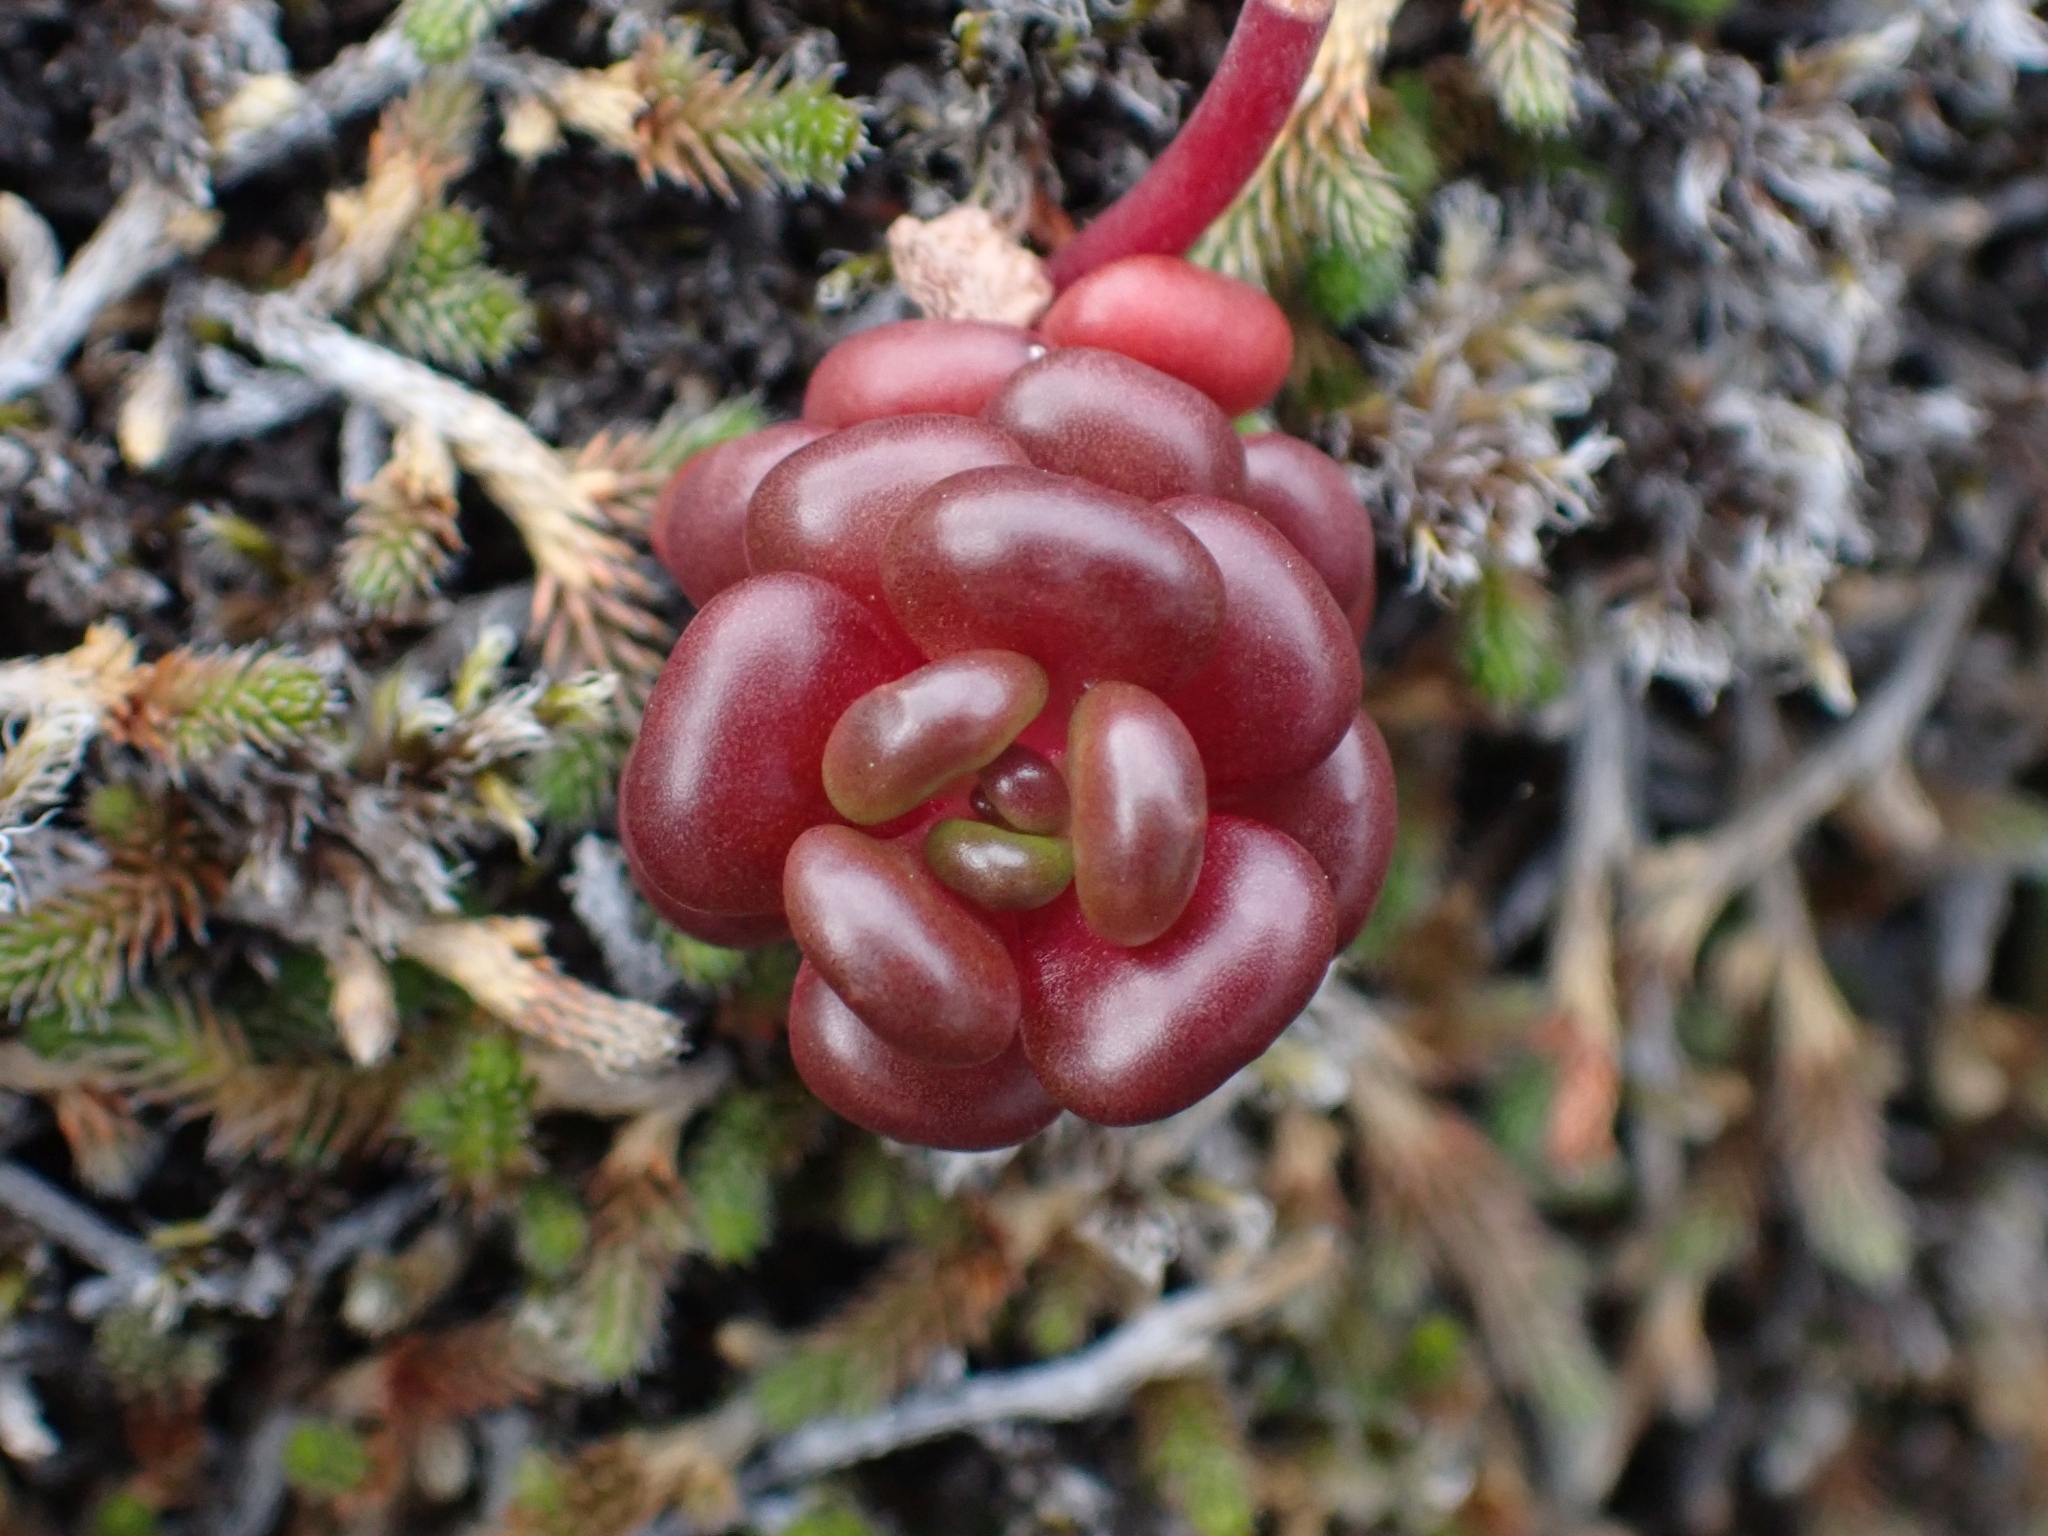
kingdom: Plantae
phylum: Tracheophyta
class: Magnoliopsida
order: Saxifragales
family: Crassulaceae
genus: Sedum
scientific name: Sedum oreganum
